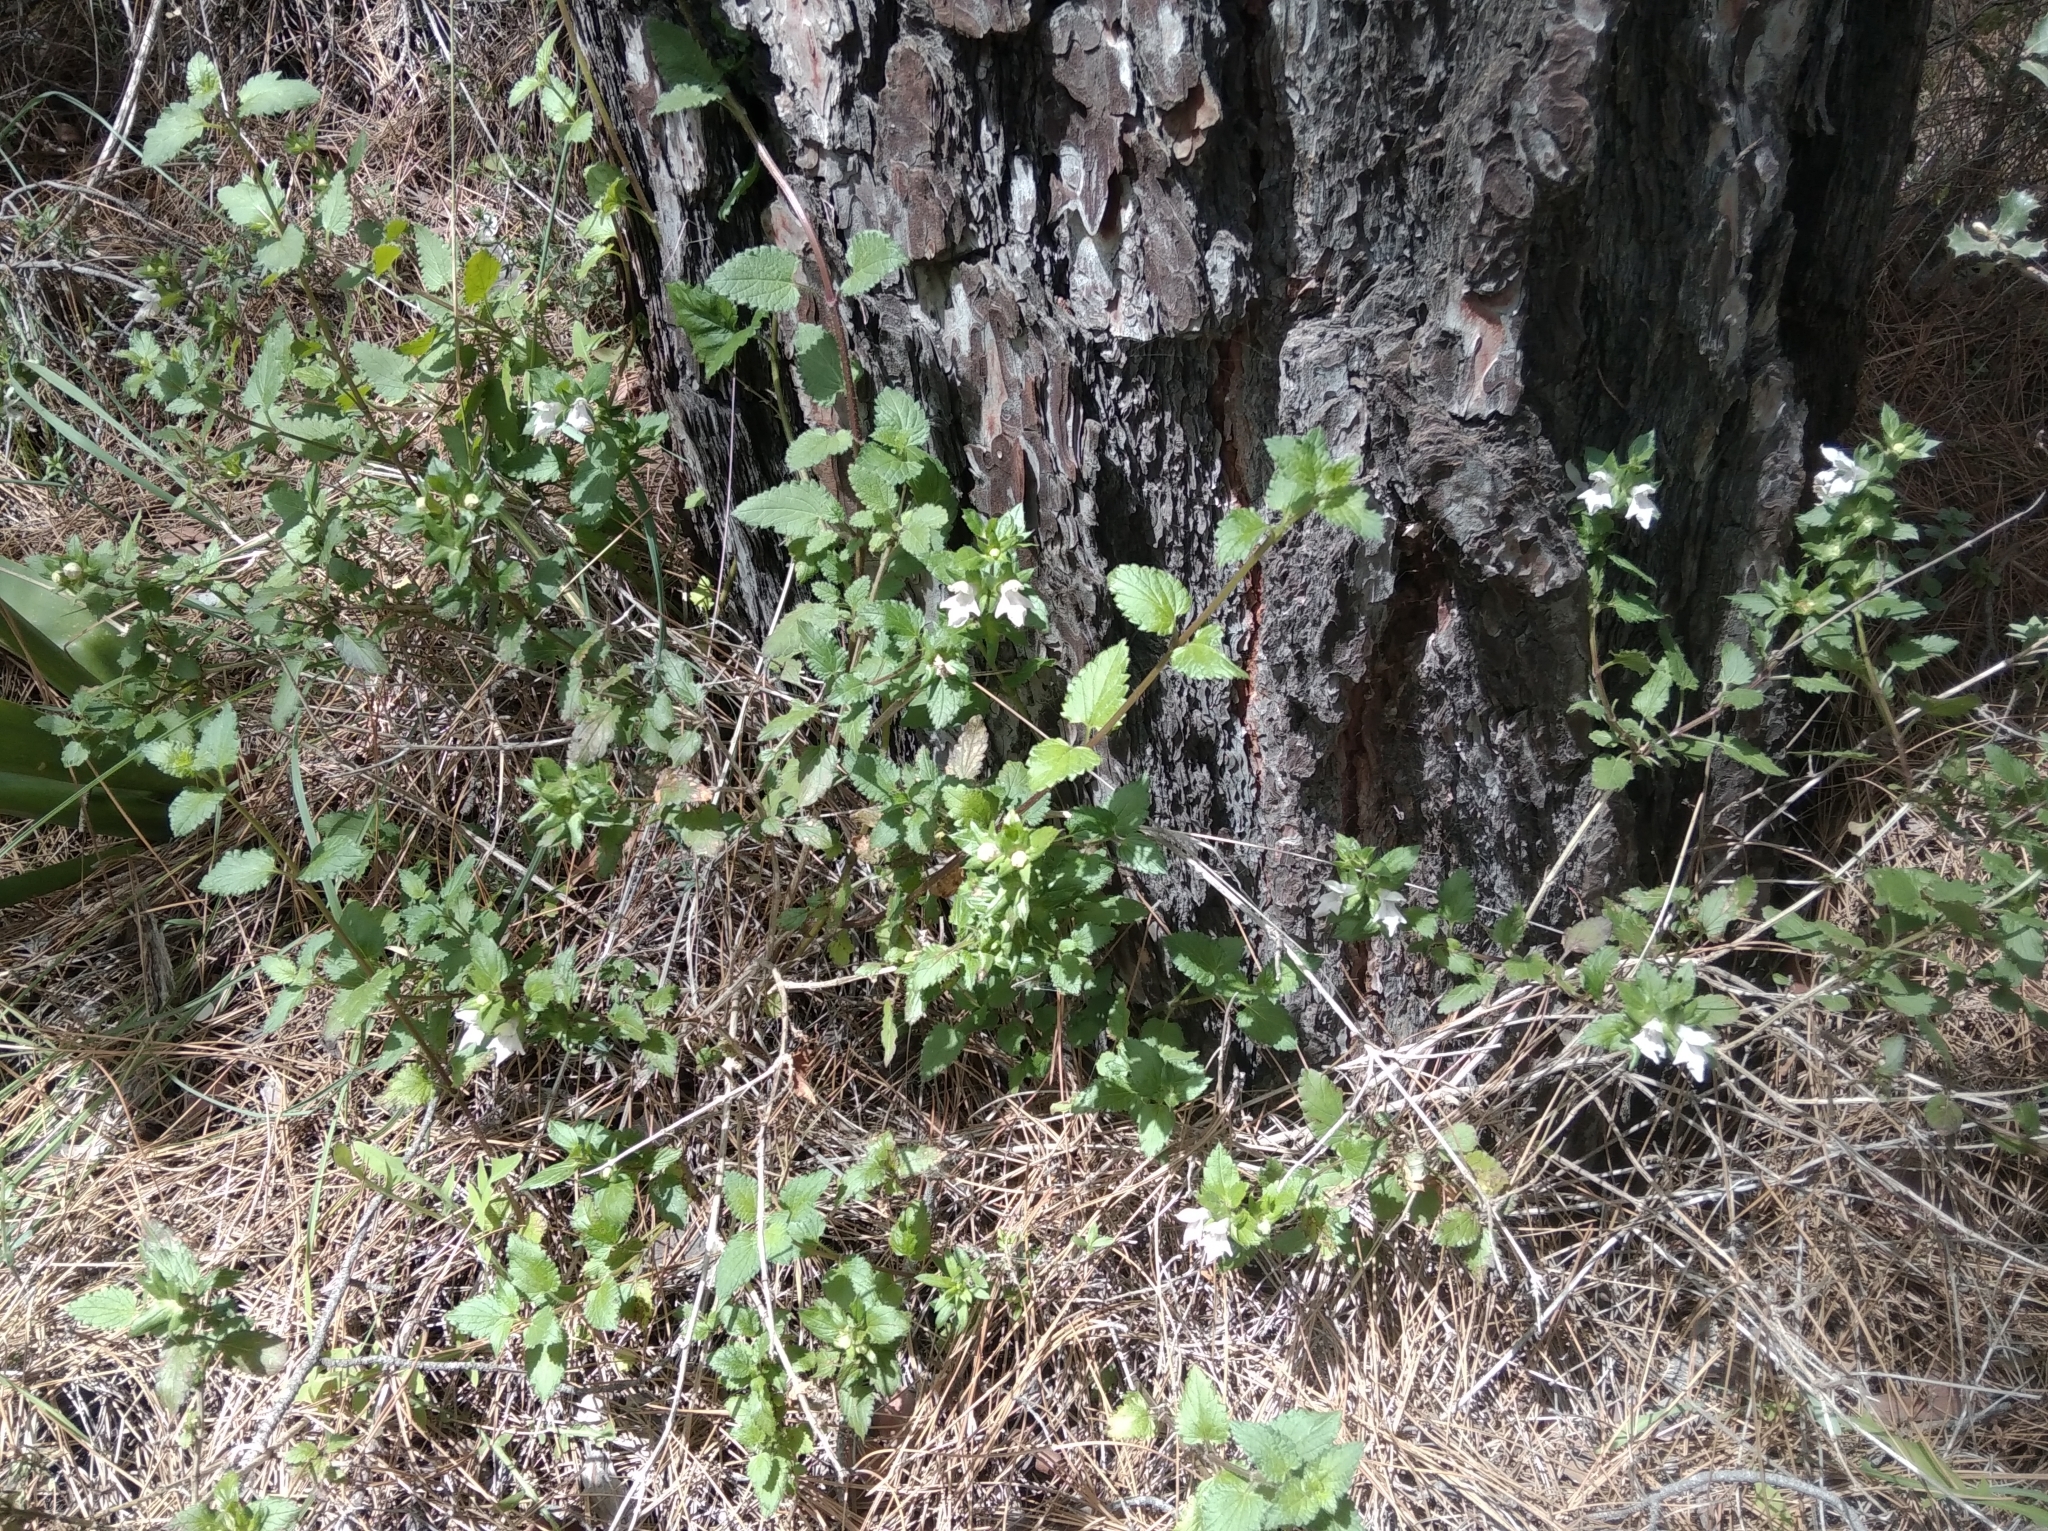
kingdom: Plantae
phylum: Tracheophyta
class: Magnoliopsida
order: Lamiales
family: Lamiaceae
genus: Prasium
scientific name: Prasium majus
